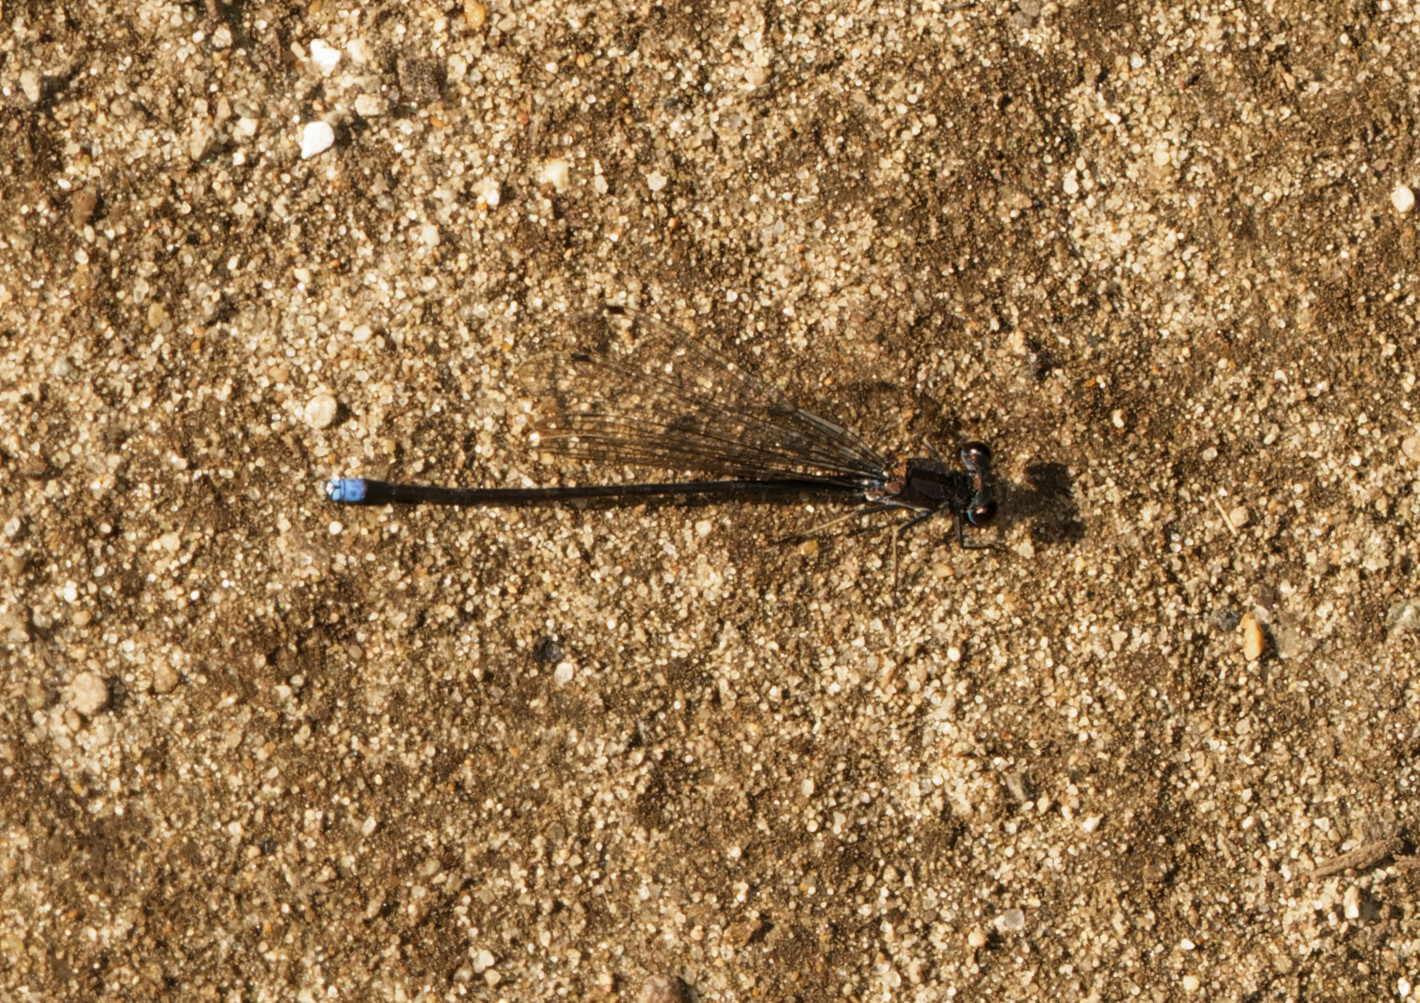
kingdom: Animalia
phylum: Arthropoda
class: Insecta
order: Odonata
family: Coenagrionidae
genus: Argia
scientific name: Argia tibialis
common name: Blue-tipped dancer
